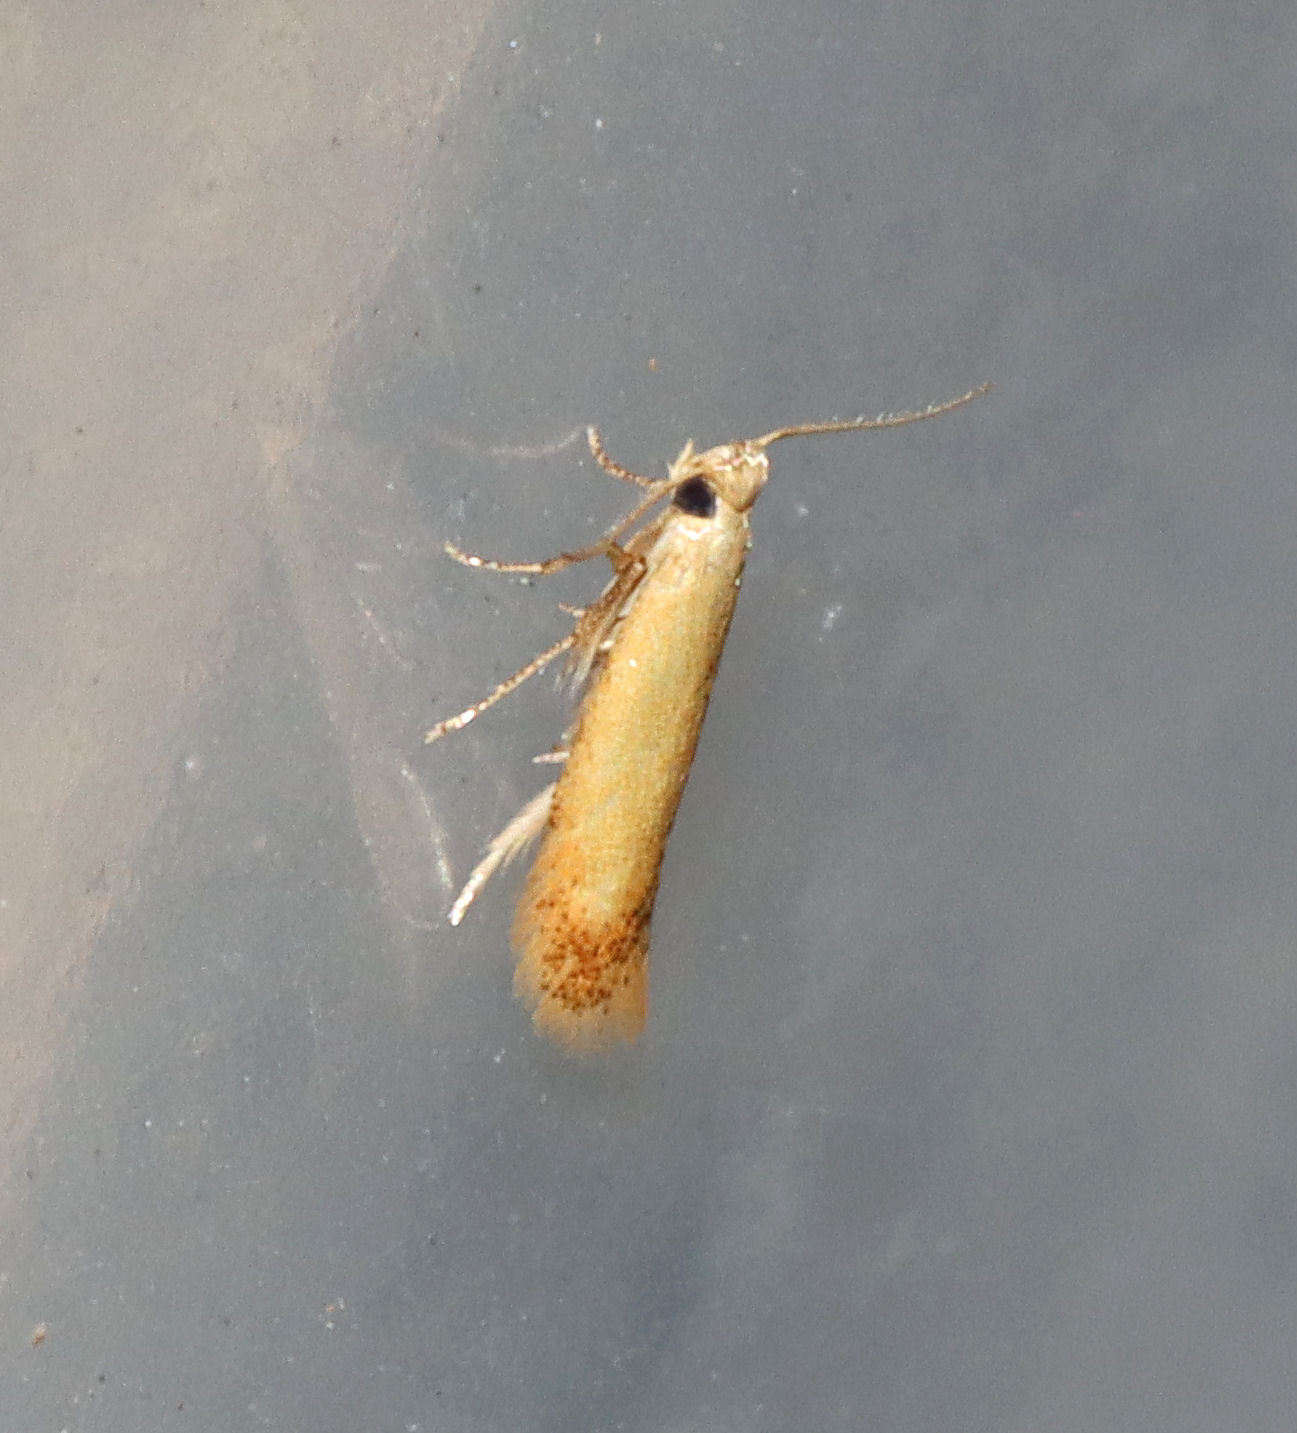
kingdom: Animalia
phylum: Arthropoda
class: Insecta
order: Lepidoptera
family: Tischeriidae
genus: Coptotriche
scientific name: Coptotriche citrinipennella
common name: The golden sweeper
